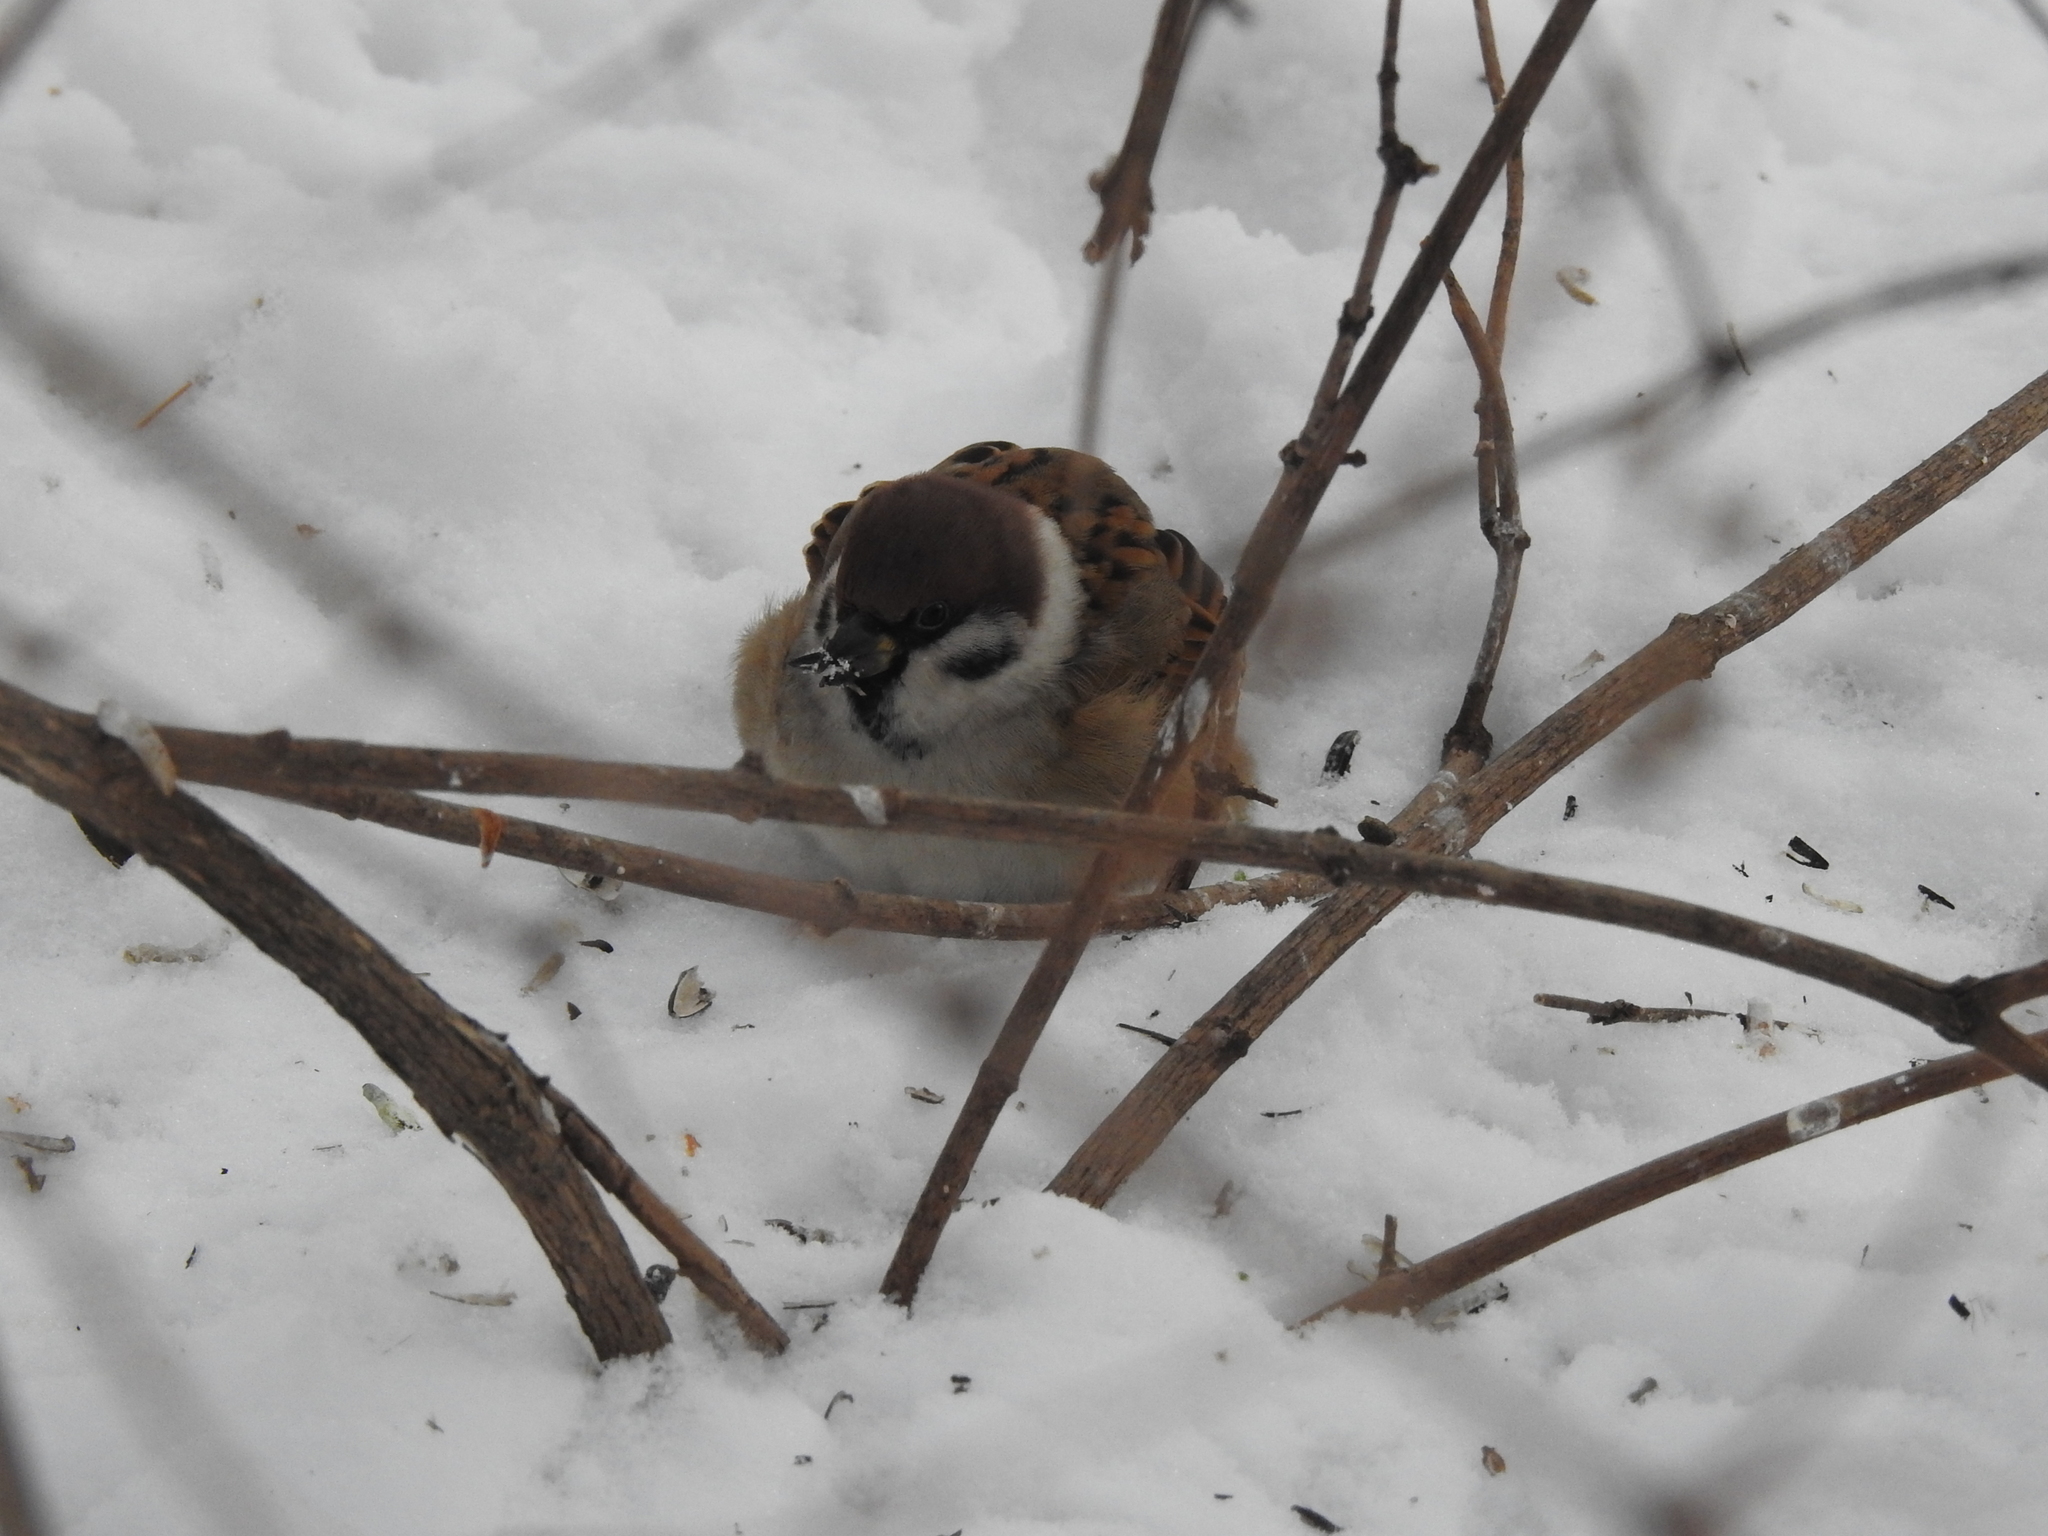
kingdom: Animalia
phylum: Chordata
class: Aves
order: Passeriformes
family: Passeridae
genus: Passer
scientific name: Passer montanus
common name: Eurasian tree sparrow
